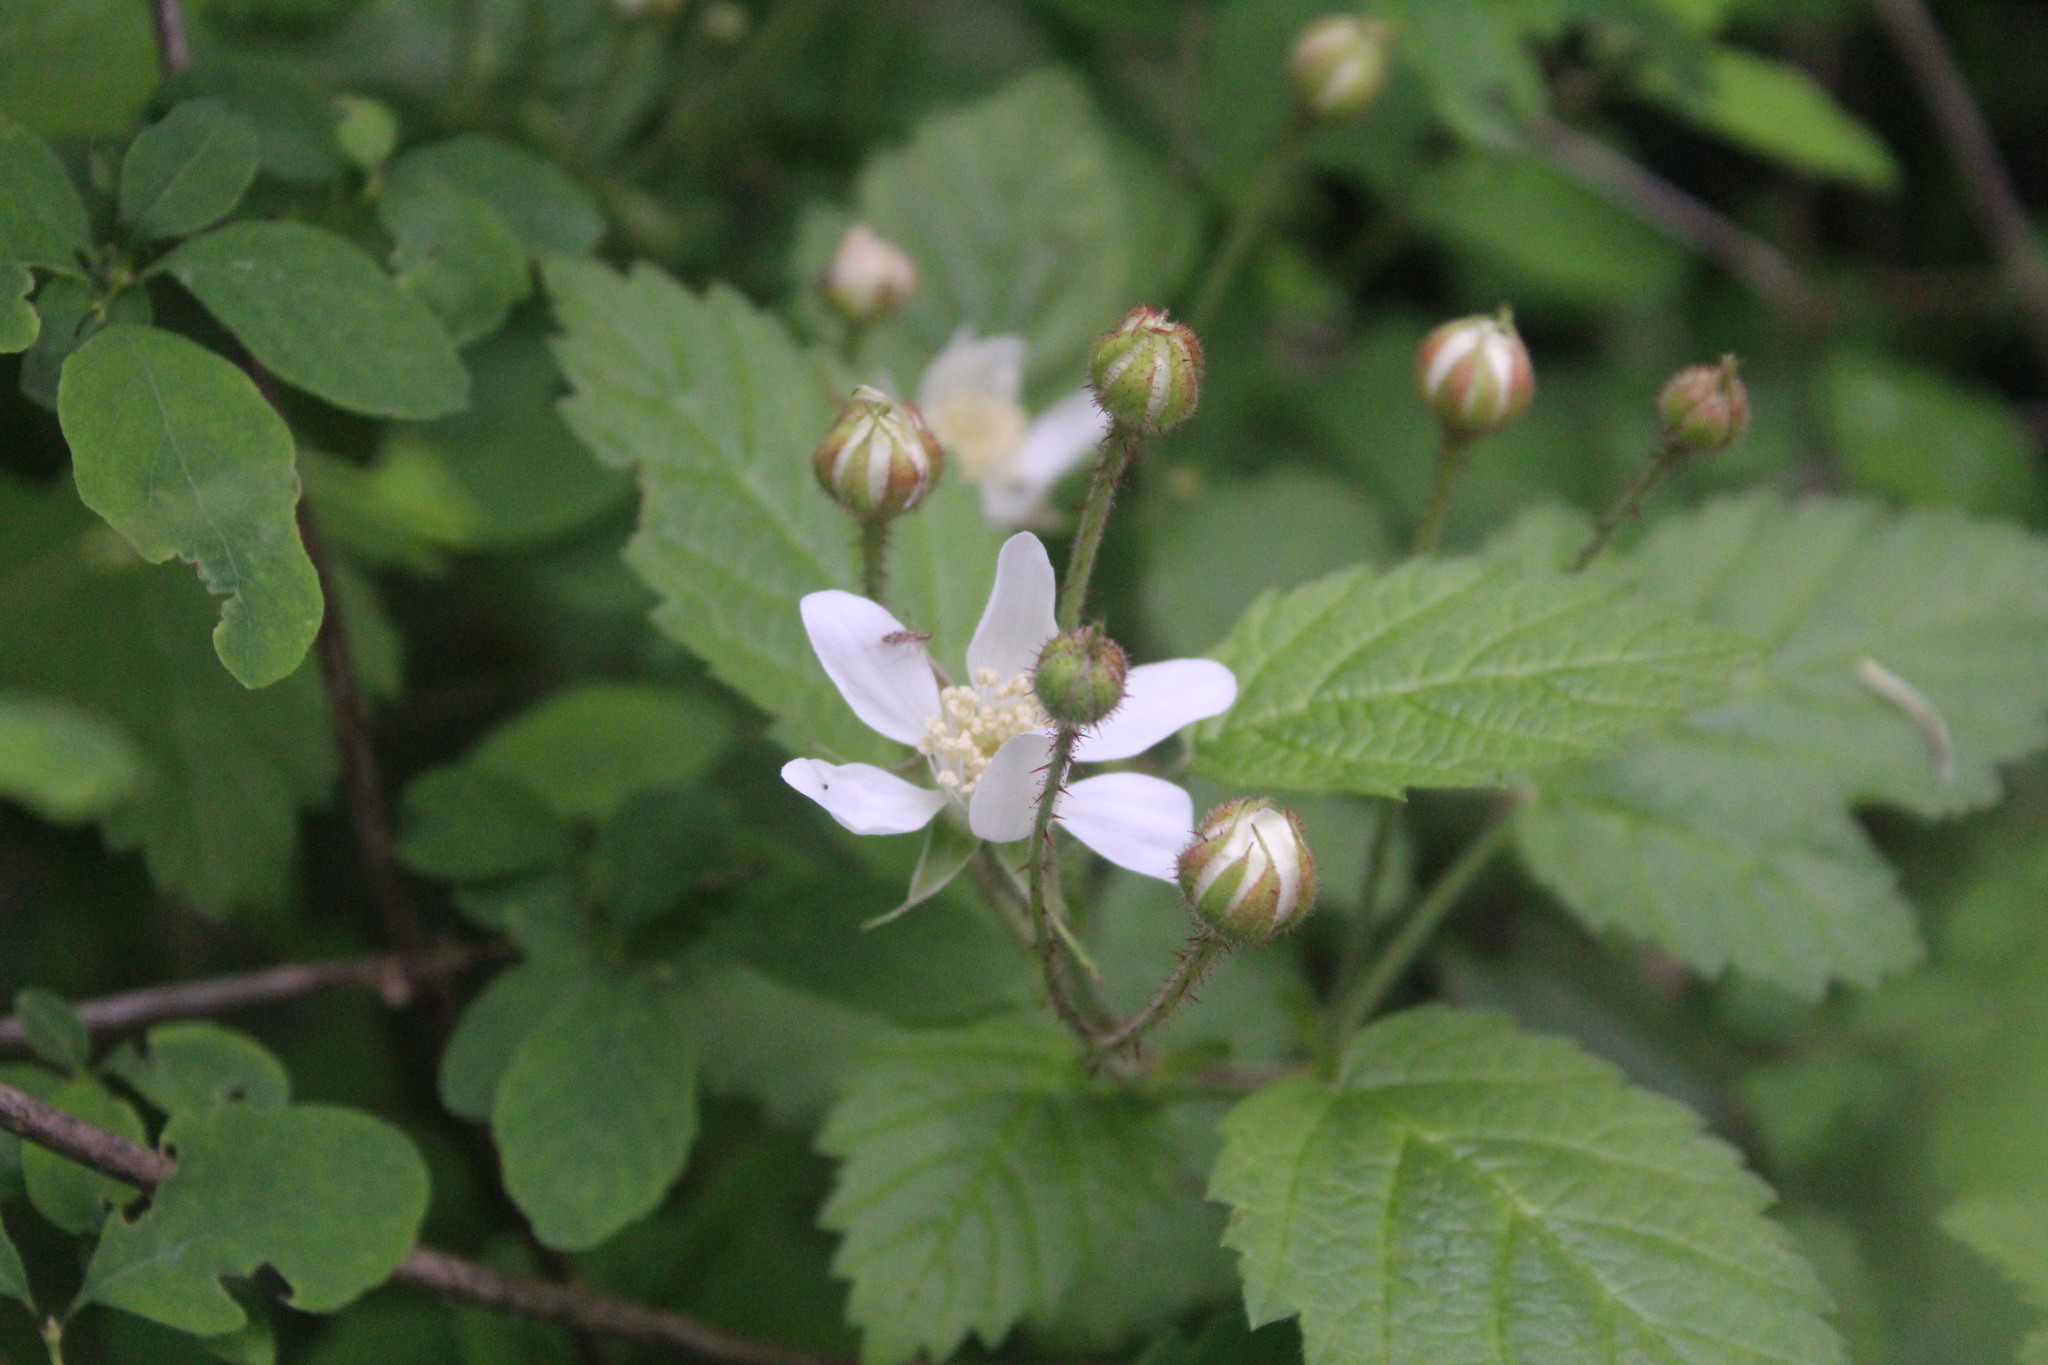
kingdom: Plantae
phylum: Tracheophyta
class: Magnoliopsida
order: Rosales
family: Rosaceae
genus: Rubus
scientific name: Rubus ursinus
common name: Pacific blackberry
